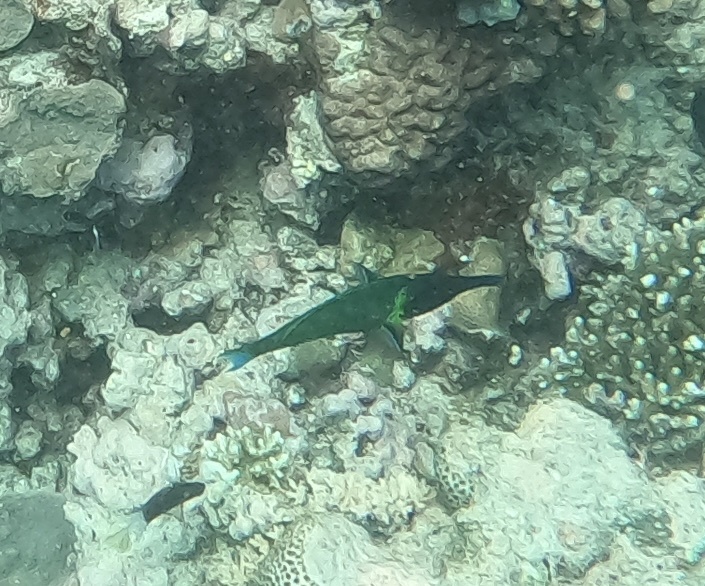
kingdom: Animalia
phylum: Chordata
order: Perciformes
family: Labridae
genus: Gomphosus
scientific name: Gomphosus varius
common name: Bird wrasse
